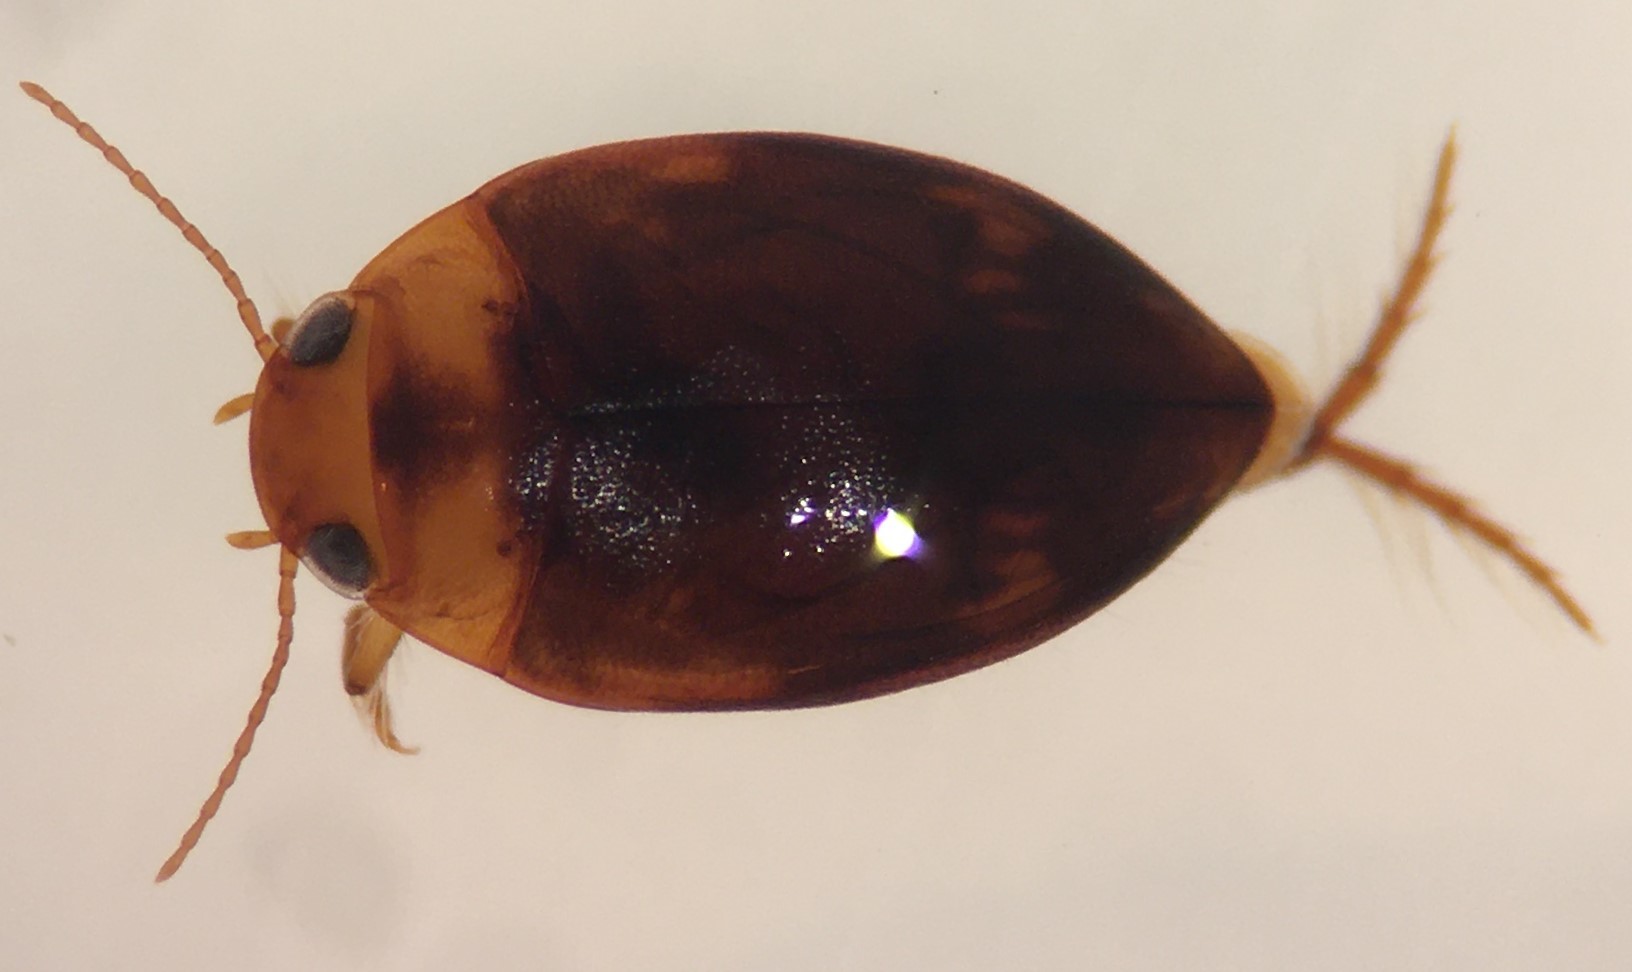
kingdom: Animalia
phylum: Arthropoda
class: Insecta
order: Coleoptera
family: Dytiscidae
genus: Neoporus
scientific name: Neoporus dilatatus
